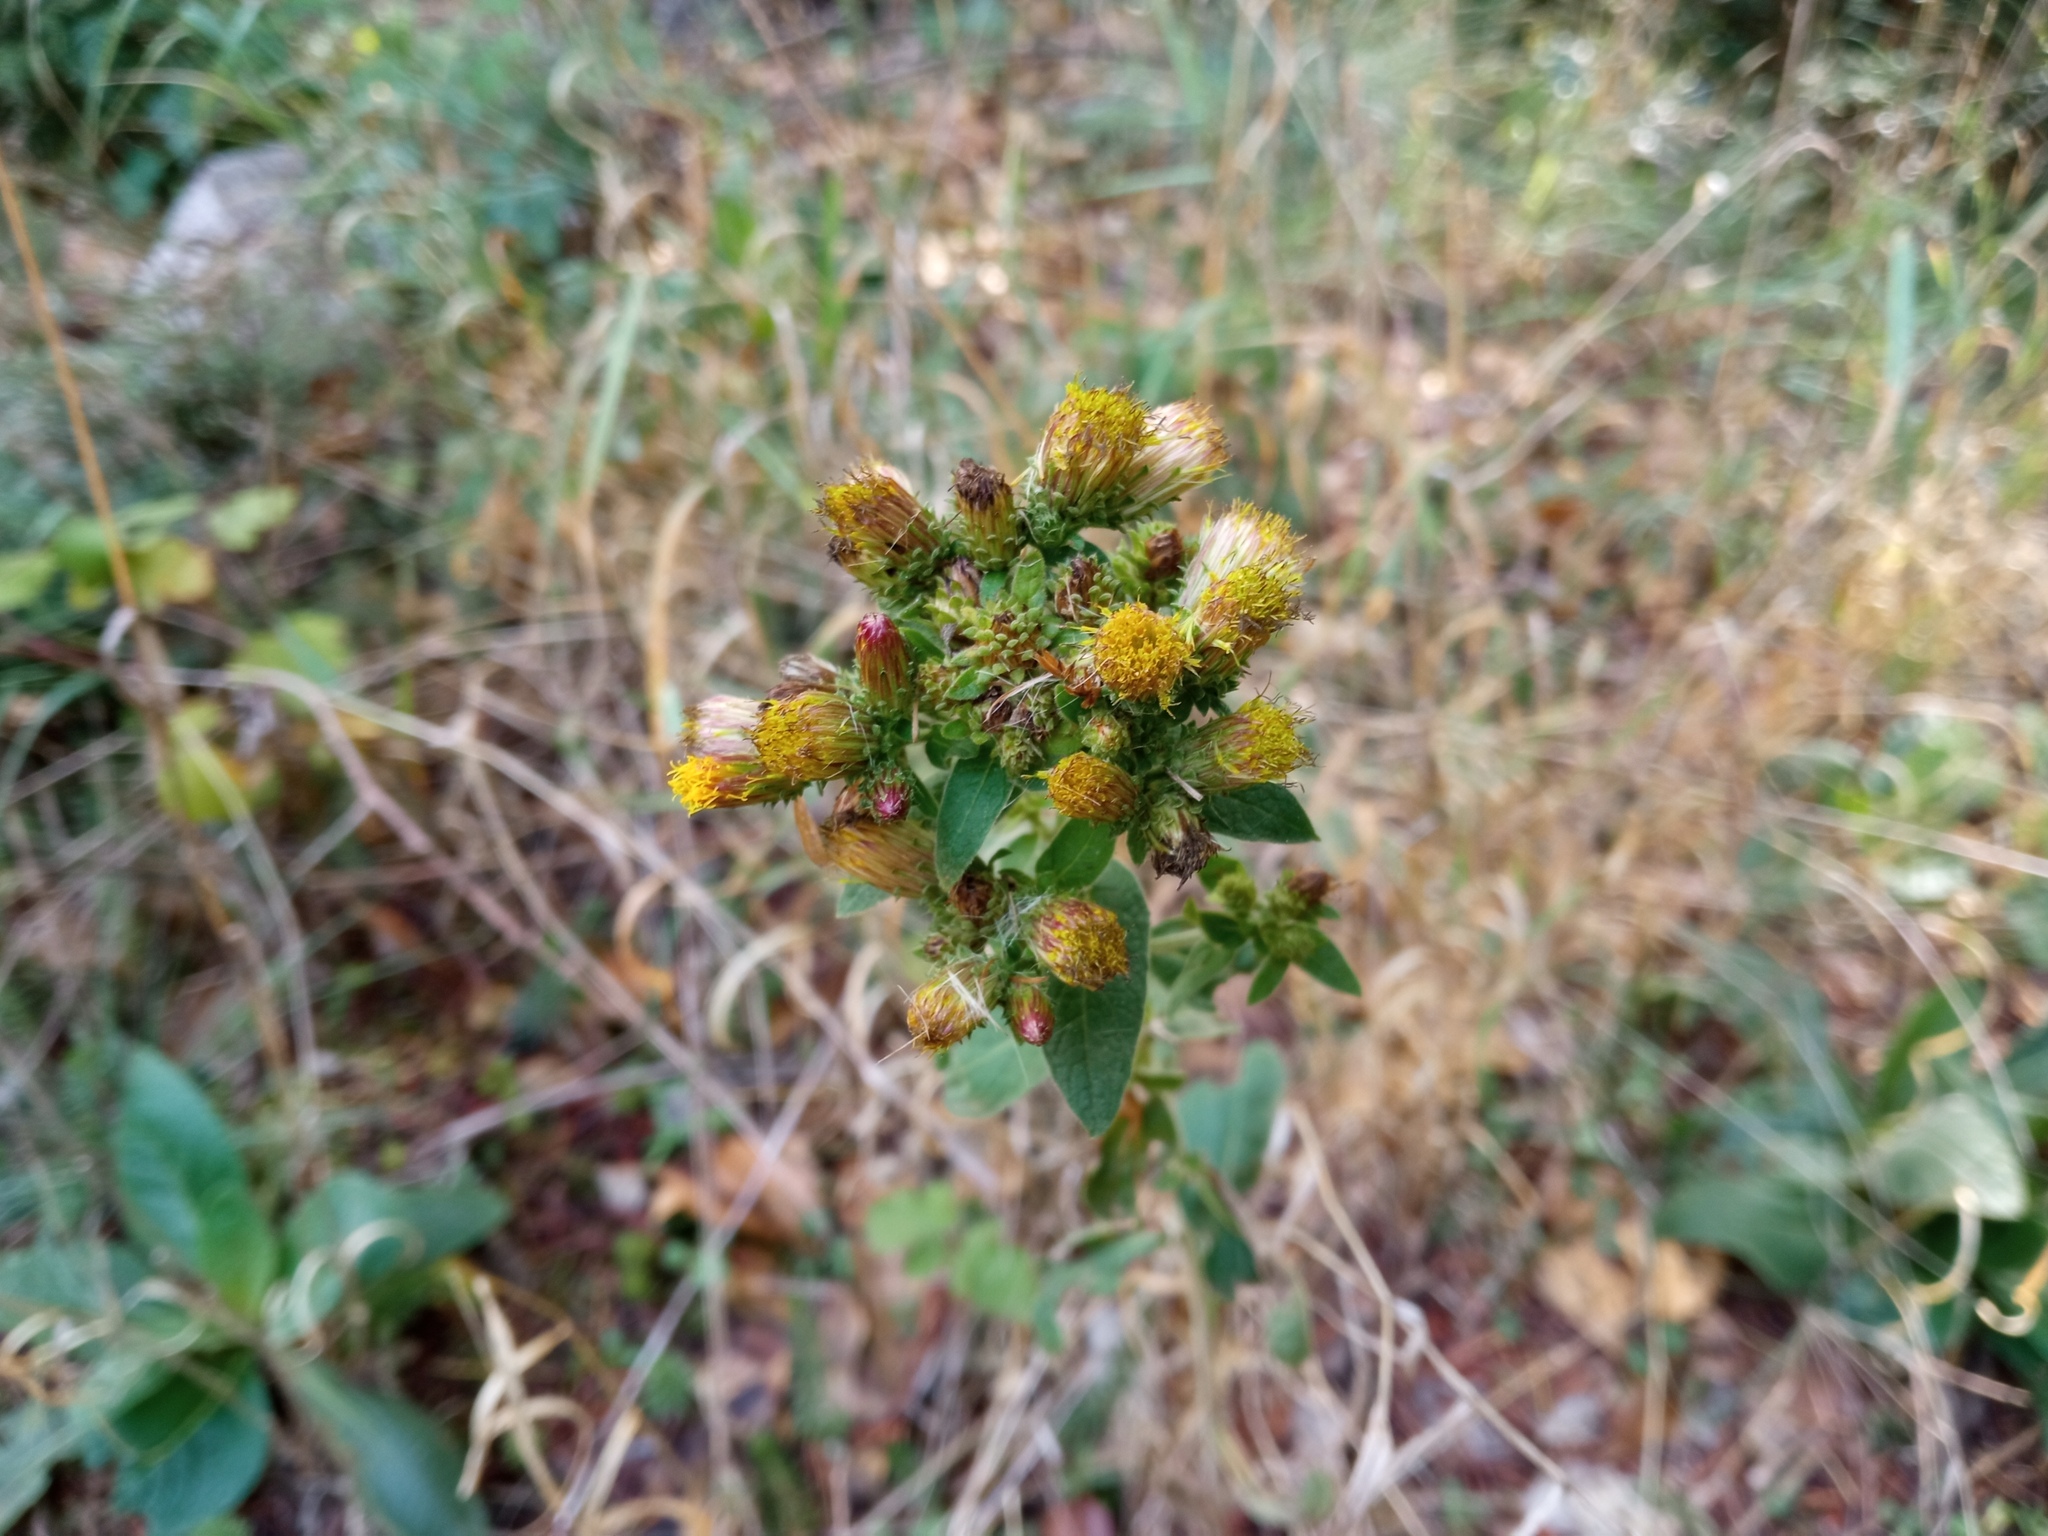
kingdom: Plantae
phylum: Tracheophyta
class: Magnoliopsida
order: Asterales
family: Asteraceae
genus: Pentanema
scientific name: Pentanema squarrosum
